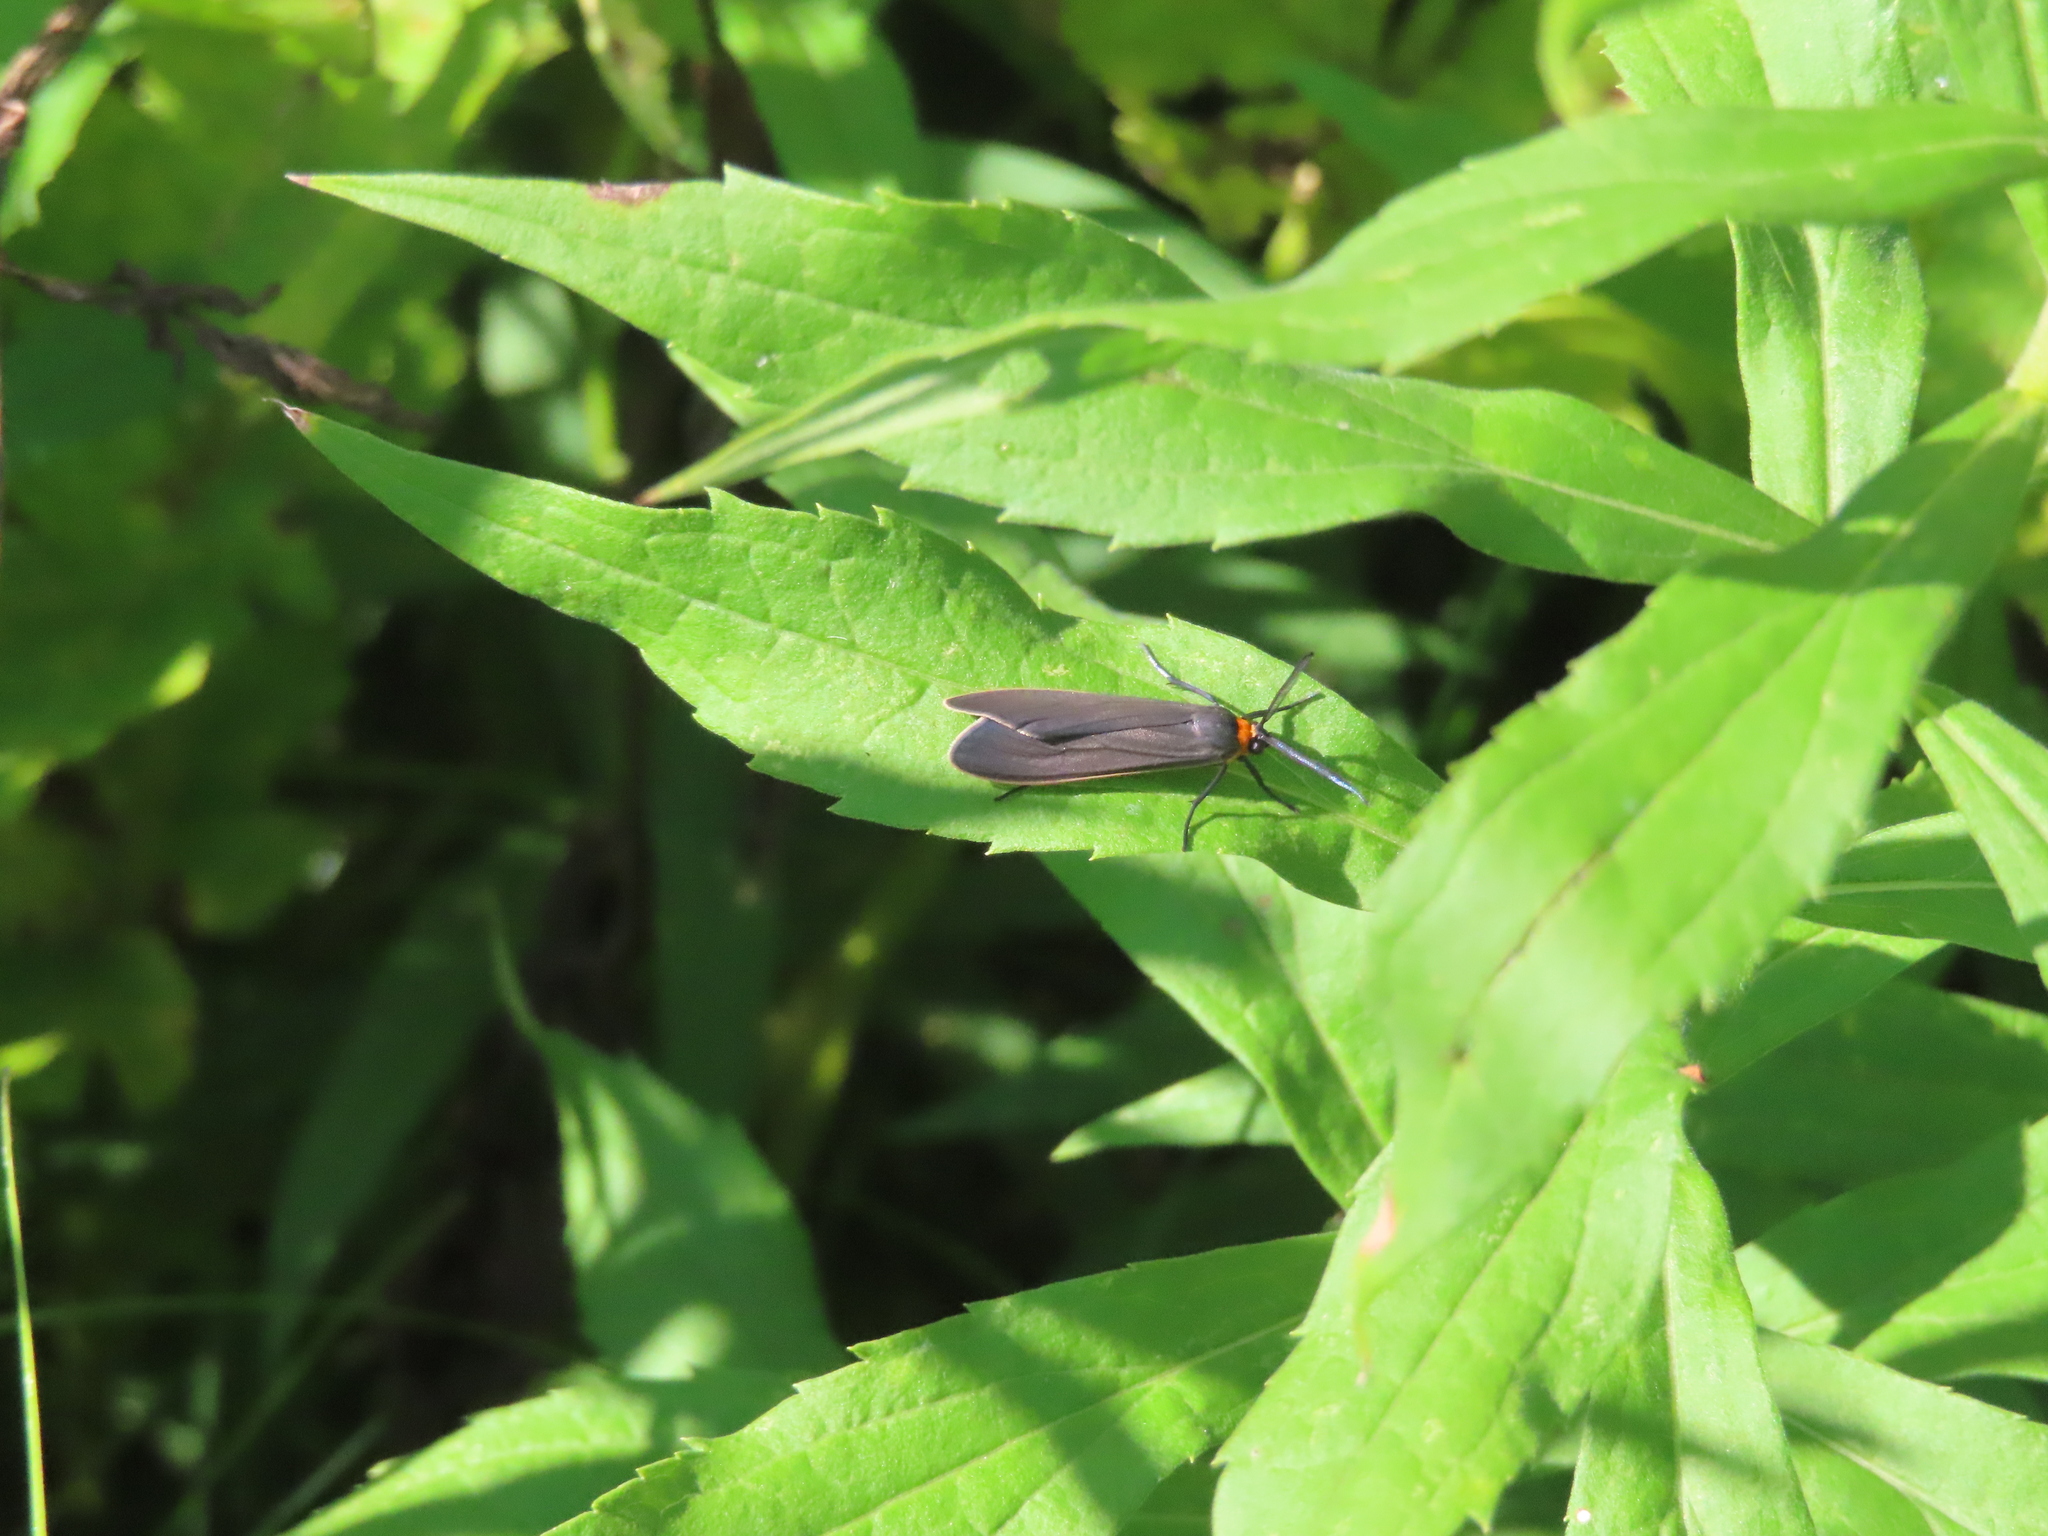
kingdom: Animalia
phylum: Arthropoda
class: Insecta
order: Lepidoptera
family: Erebidae
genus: Cisseps
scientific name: Cisseps fulvicollis
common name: Yellow-collared scape moth
